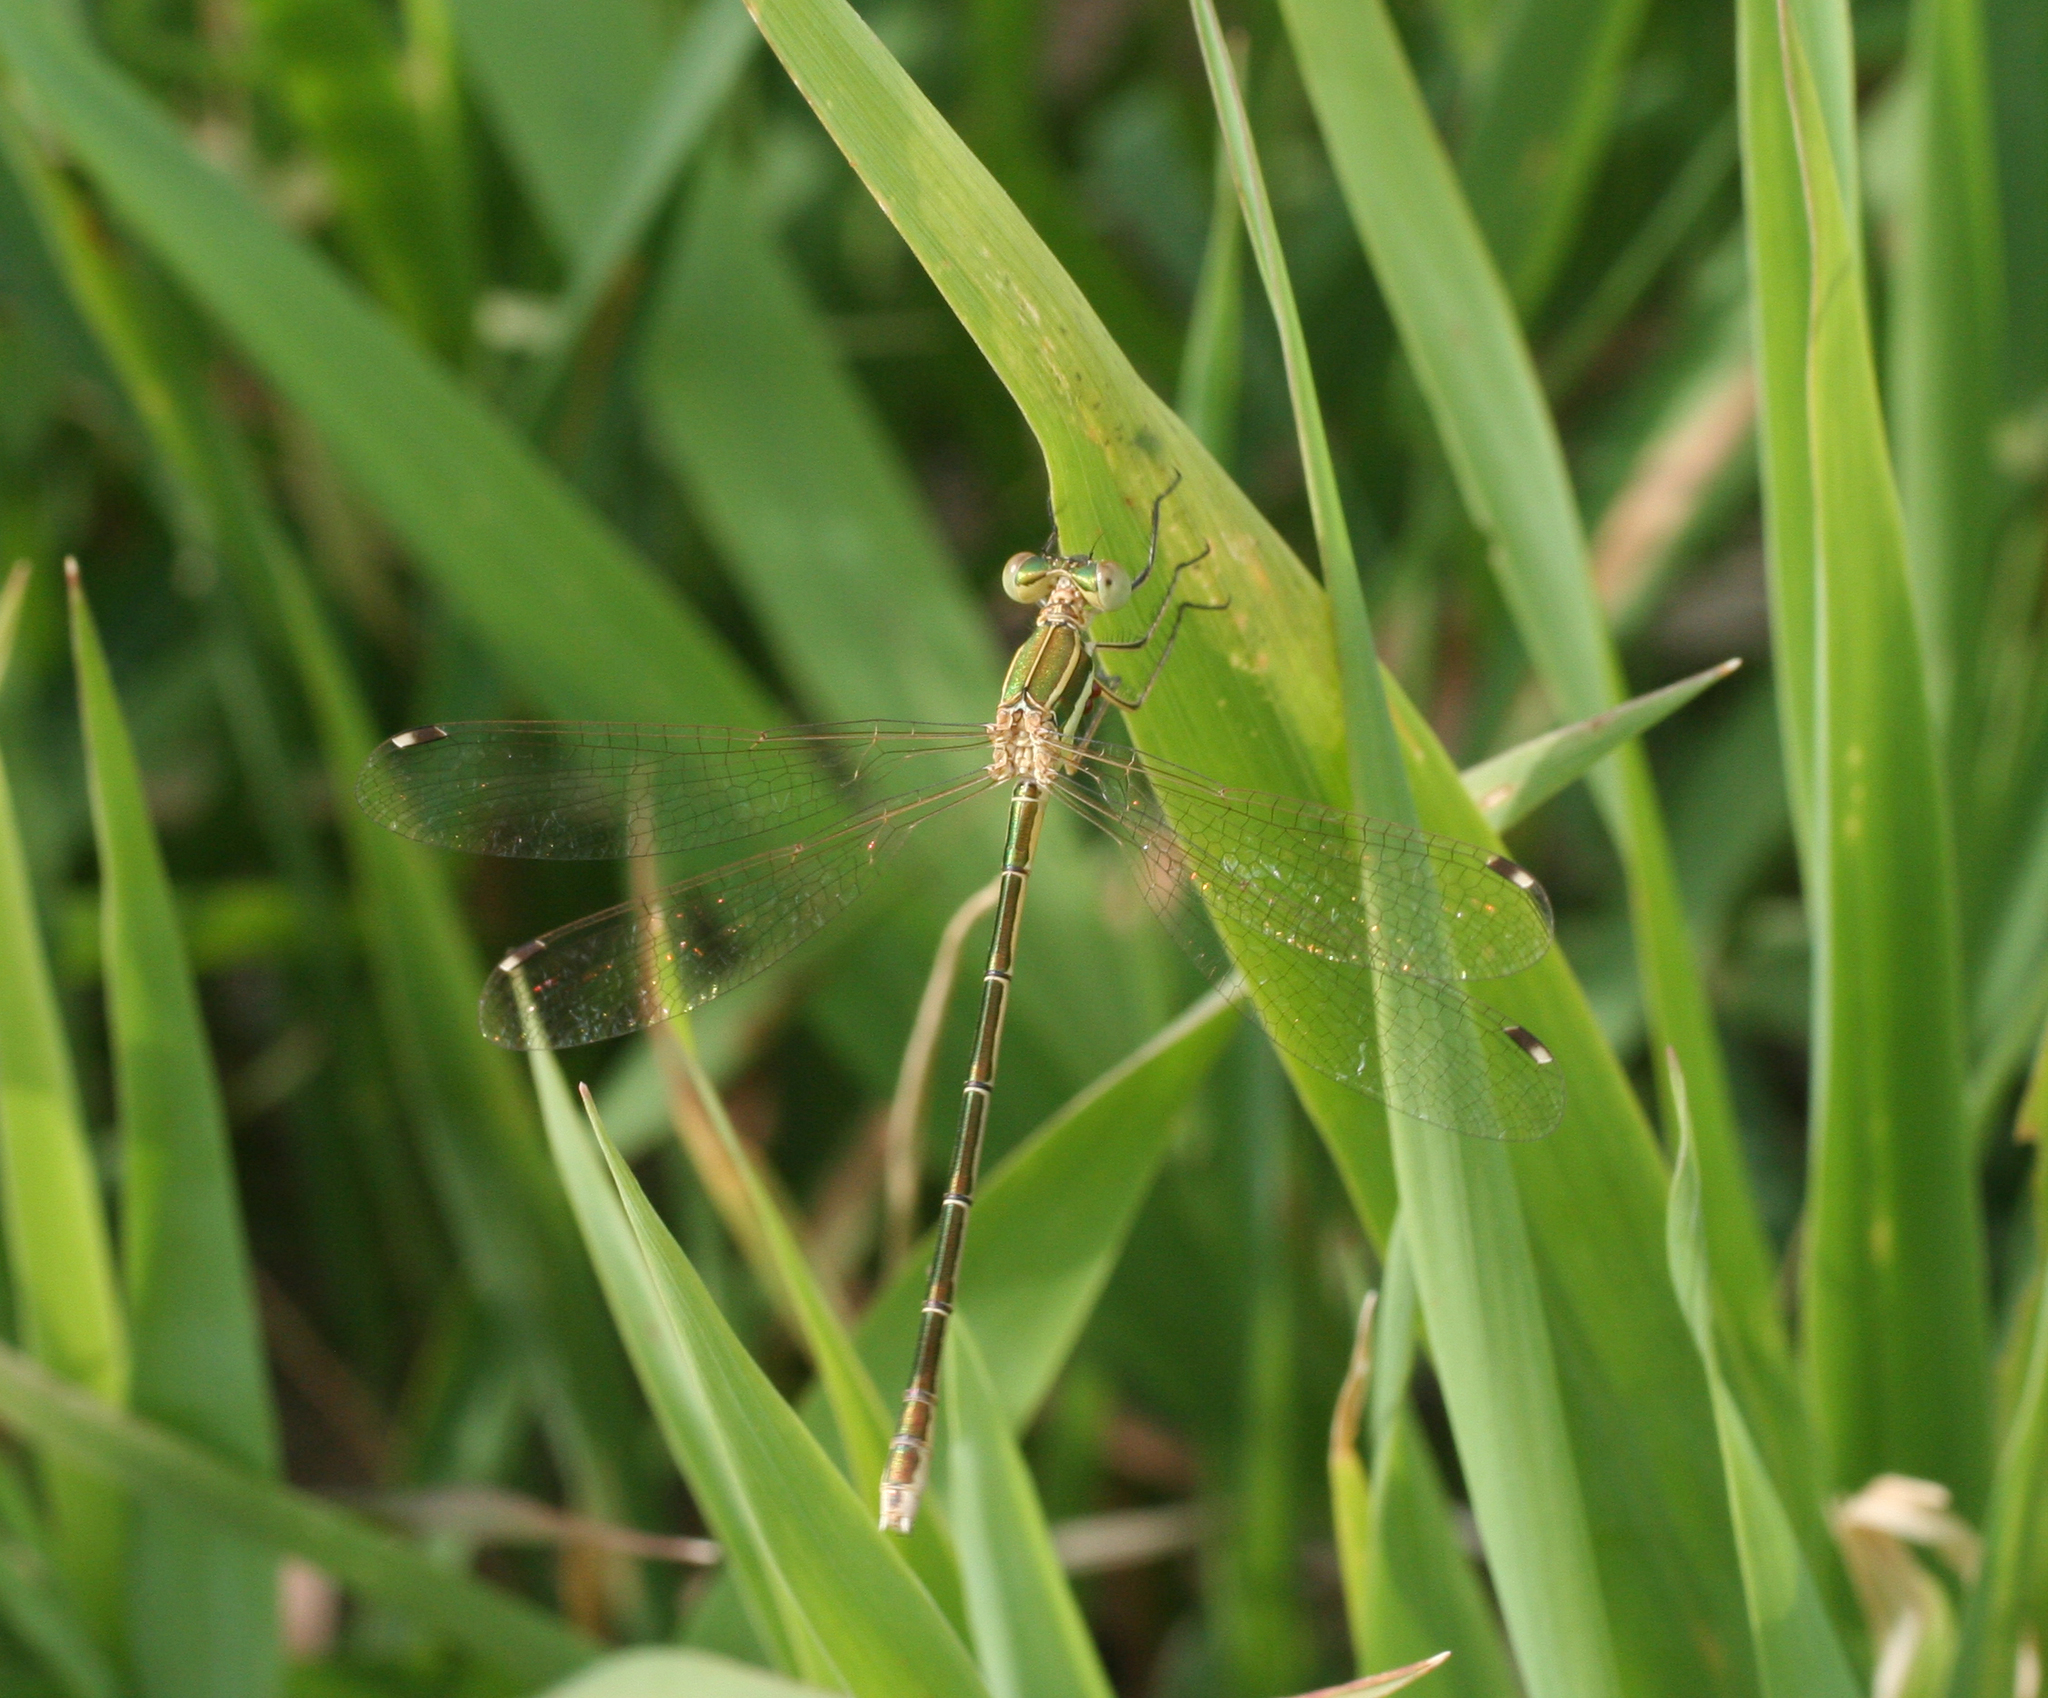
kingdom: Animalia
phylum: Arthropoda
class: Insecta
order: Odonata
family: Lestidae
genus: Lestes
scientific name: Lestes barbarus
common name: Migrant spreadwing
